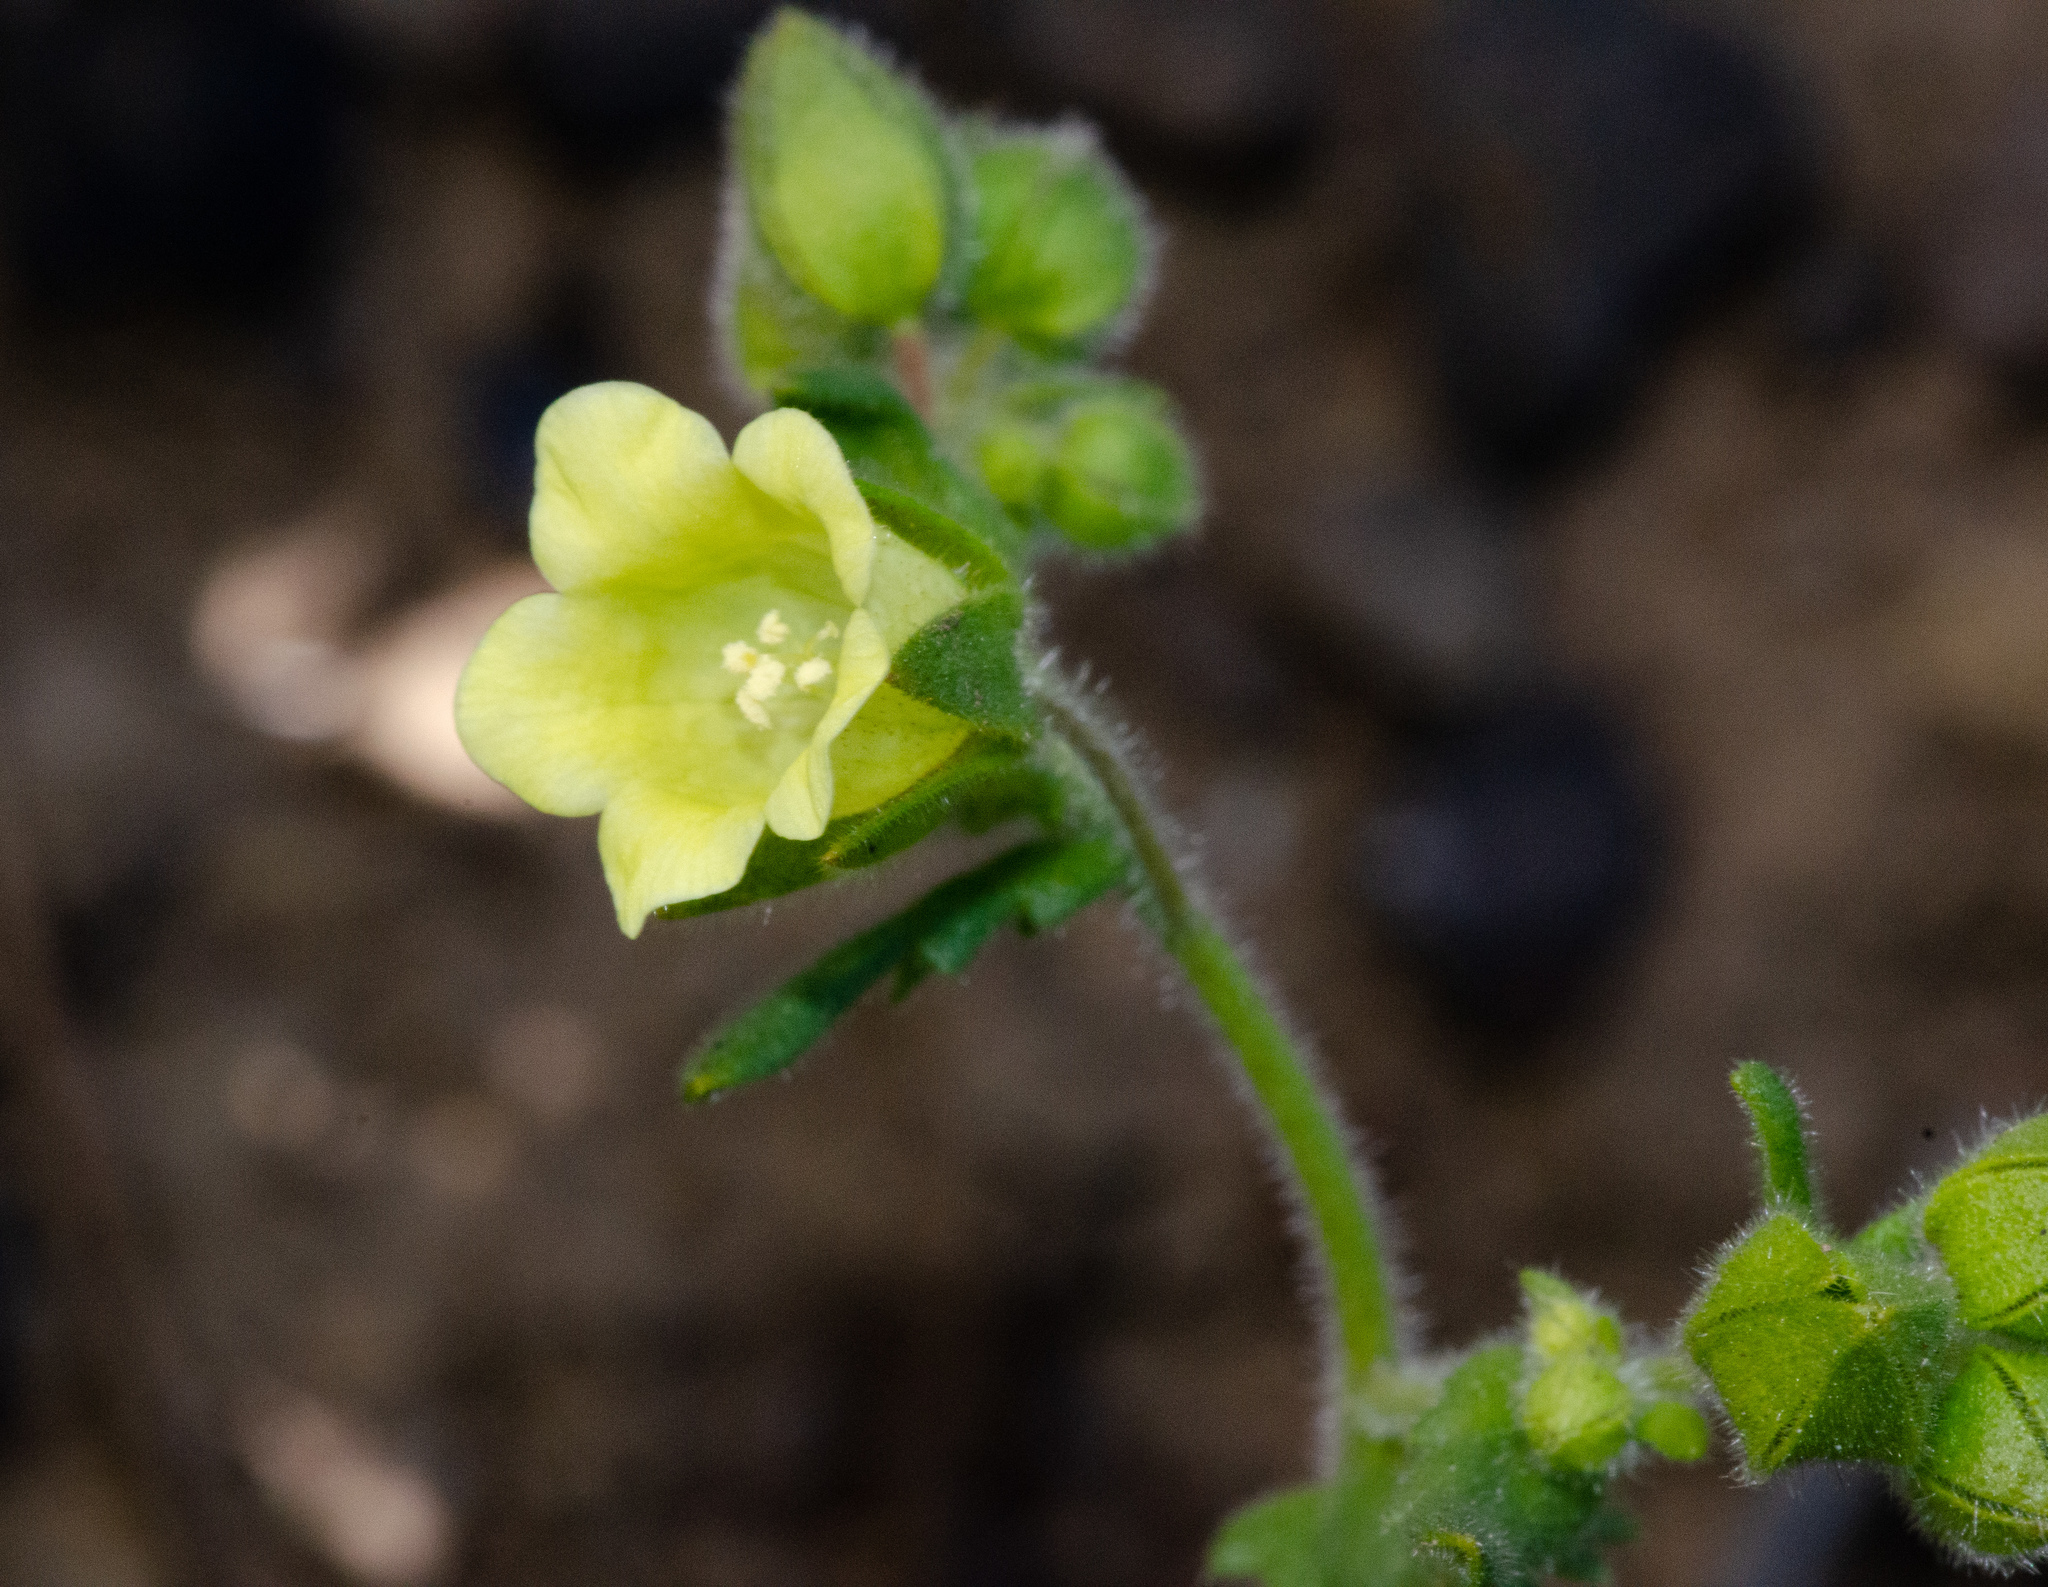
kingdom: Plantae
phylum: Tracheophyta
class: Magnoliopsida
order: Boraginales
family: Hydrophyllaceae
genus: Emmenanthe
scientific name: Emmenanthe penduliflora
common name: Whispering-bells
